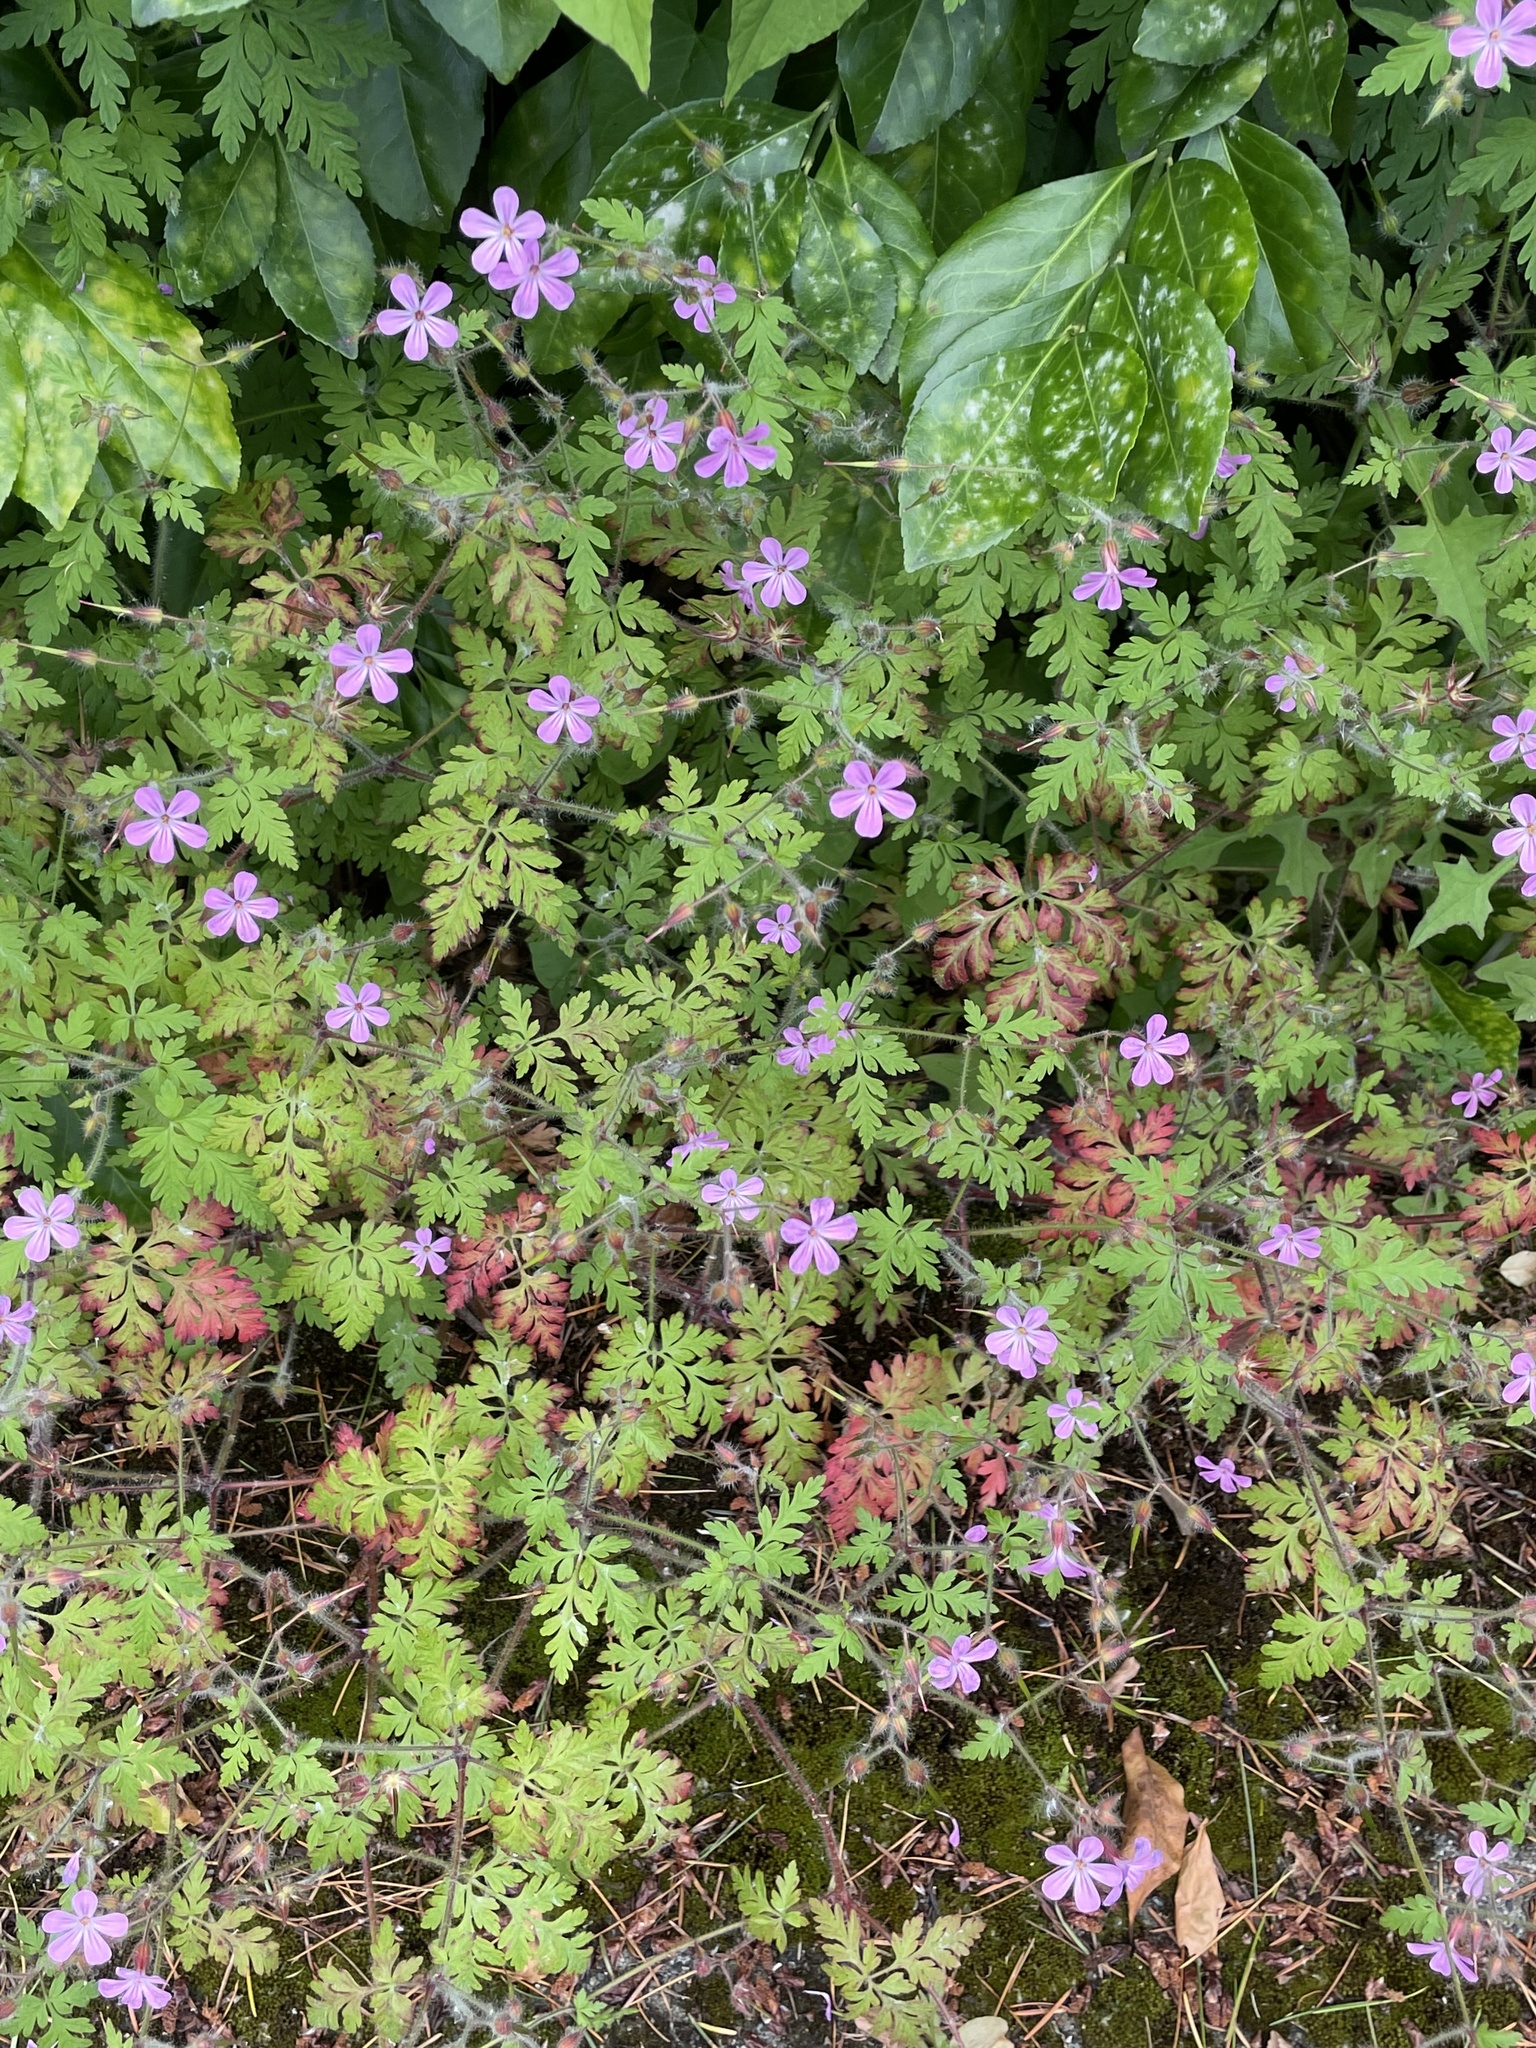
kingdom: Plantae
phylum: Tracheophyta
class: Magnoliopsida
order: Geraniales
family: Geraniaceae
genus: Geranium
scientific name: Geranium robertianum
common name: Herb-robert
